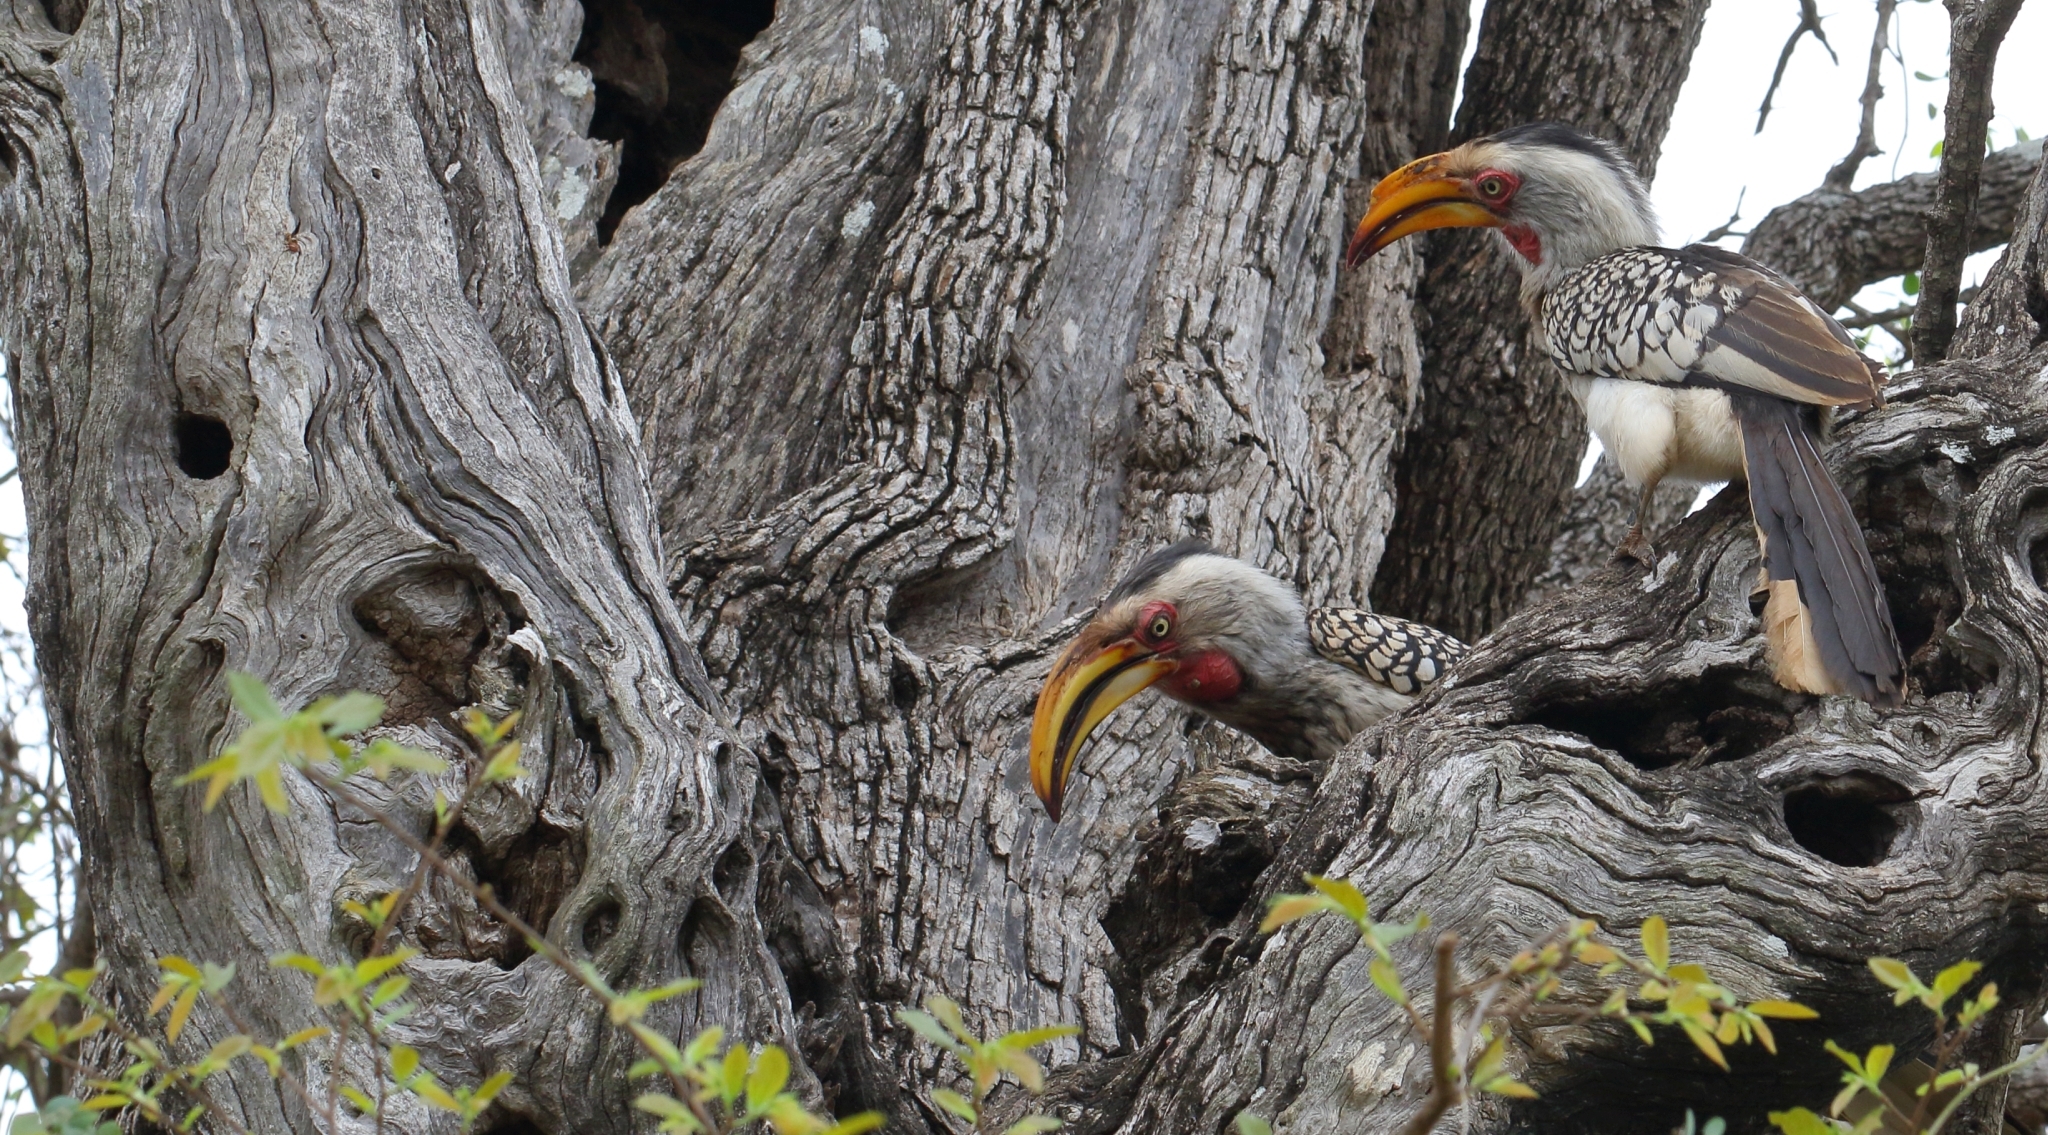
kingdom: Animalia
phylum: Chordata
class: Aves
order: Bucerotiformes
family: Bucerotidae
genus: Tockus
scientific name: Tockus leucomelas
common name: Southern yellow-billed hornbill
